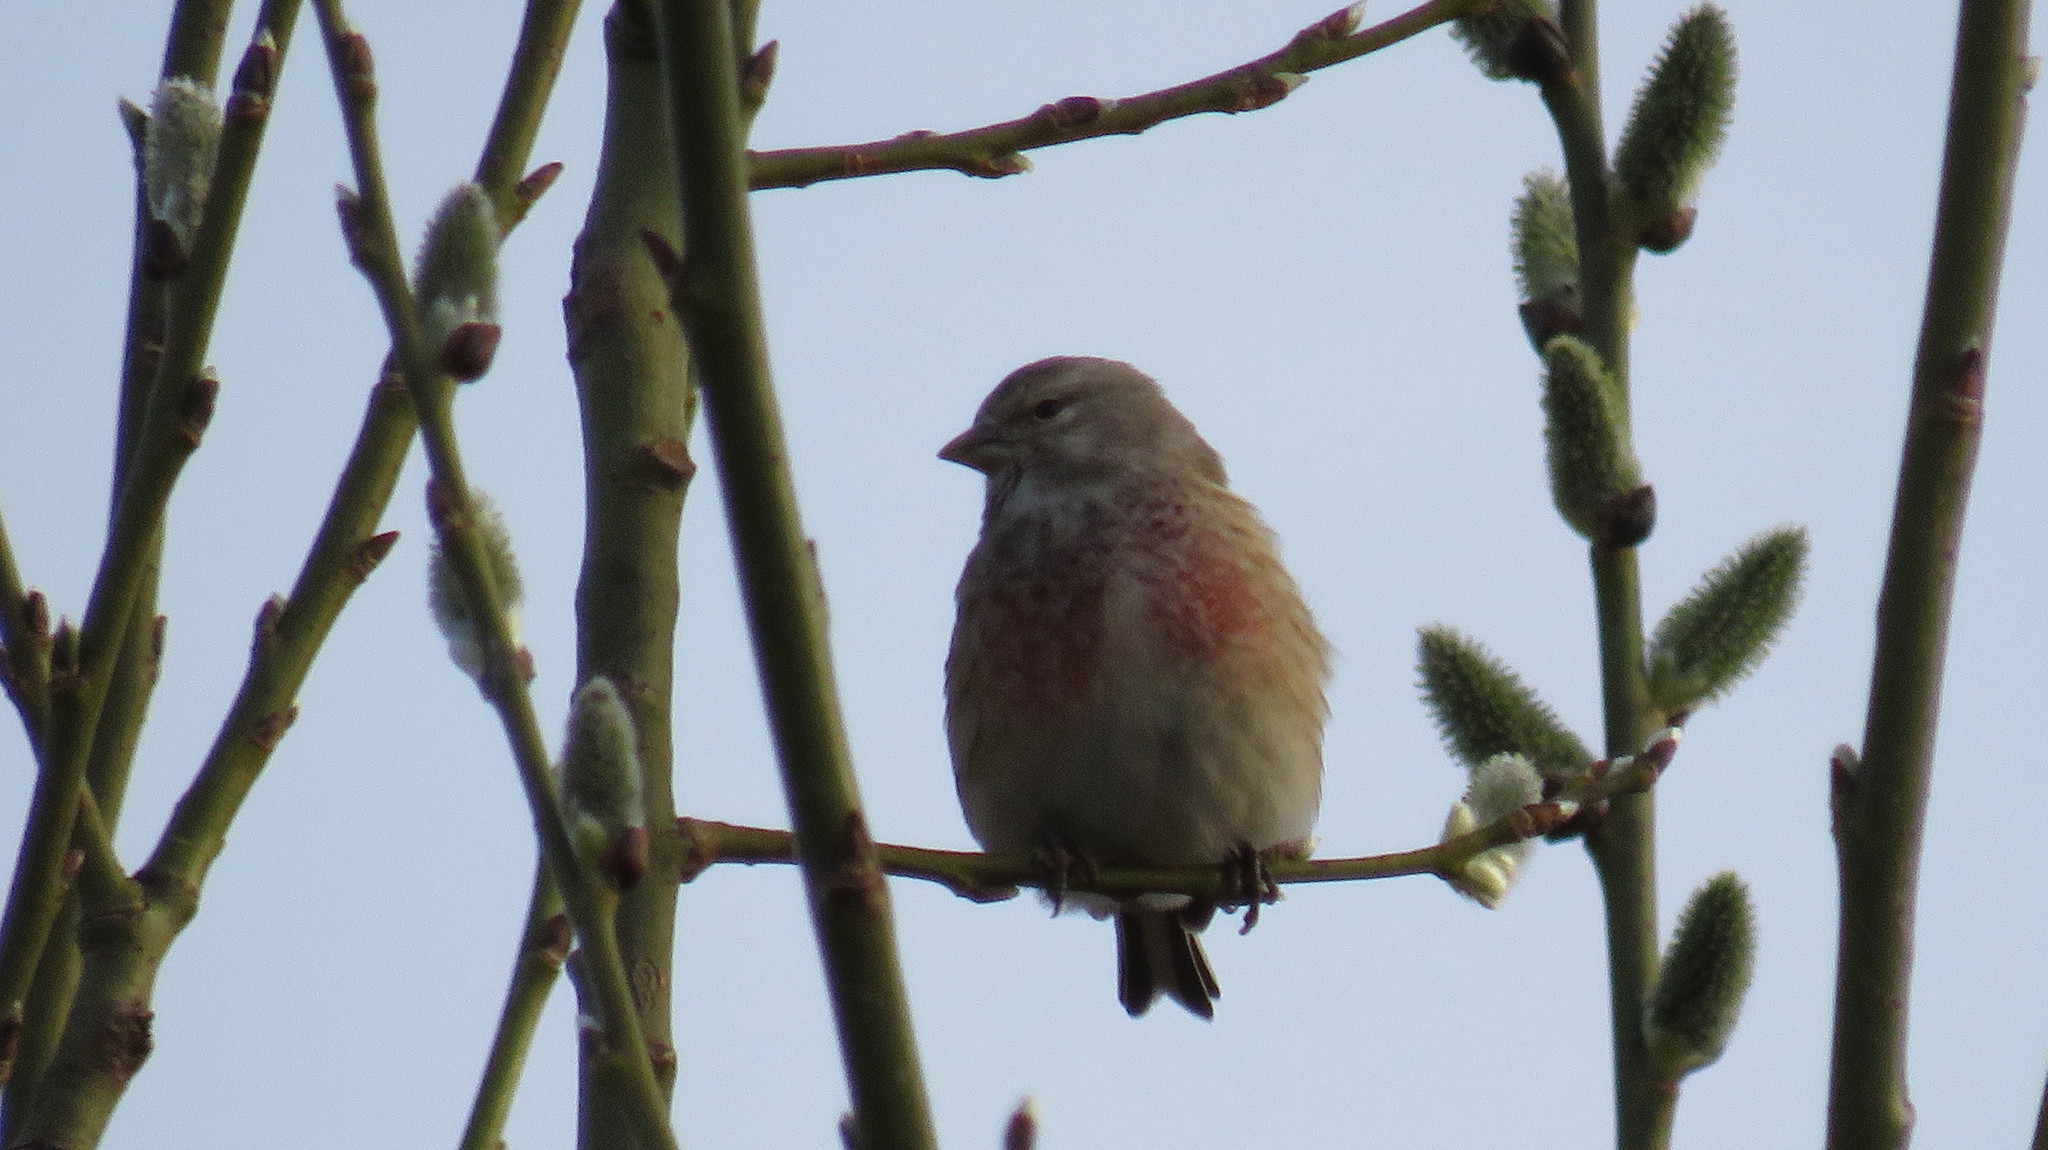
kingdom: Animalia
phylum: Chordata
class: Aves
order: Passeriformes
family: Fringillidae
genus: Linaria
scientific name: Linaria cannabina
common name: Common linnet
